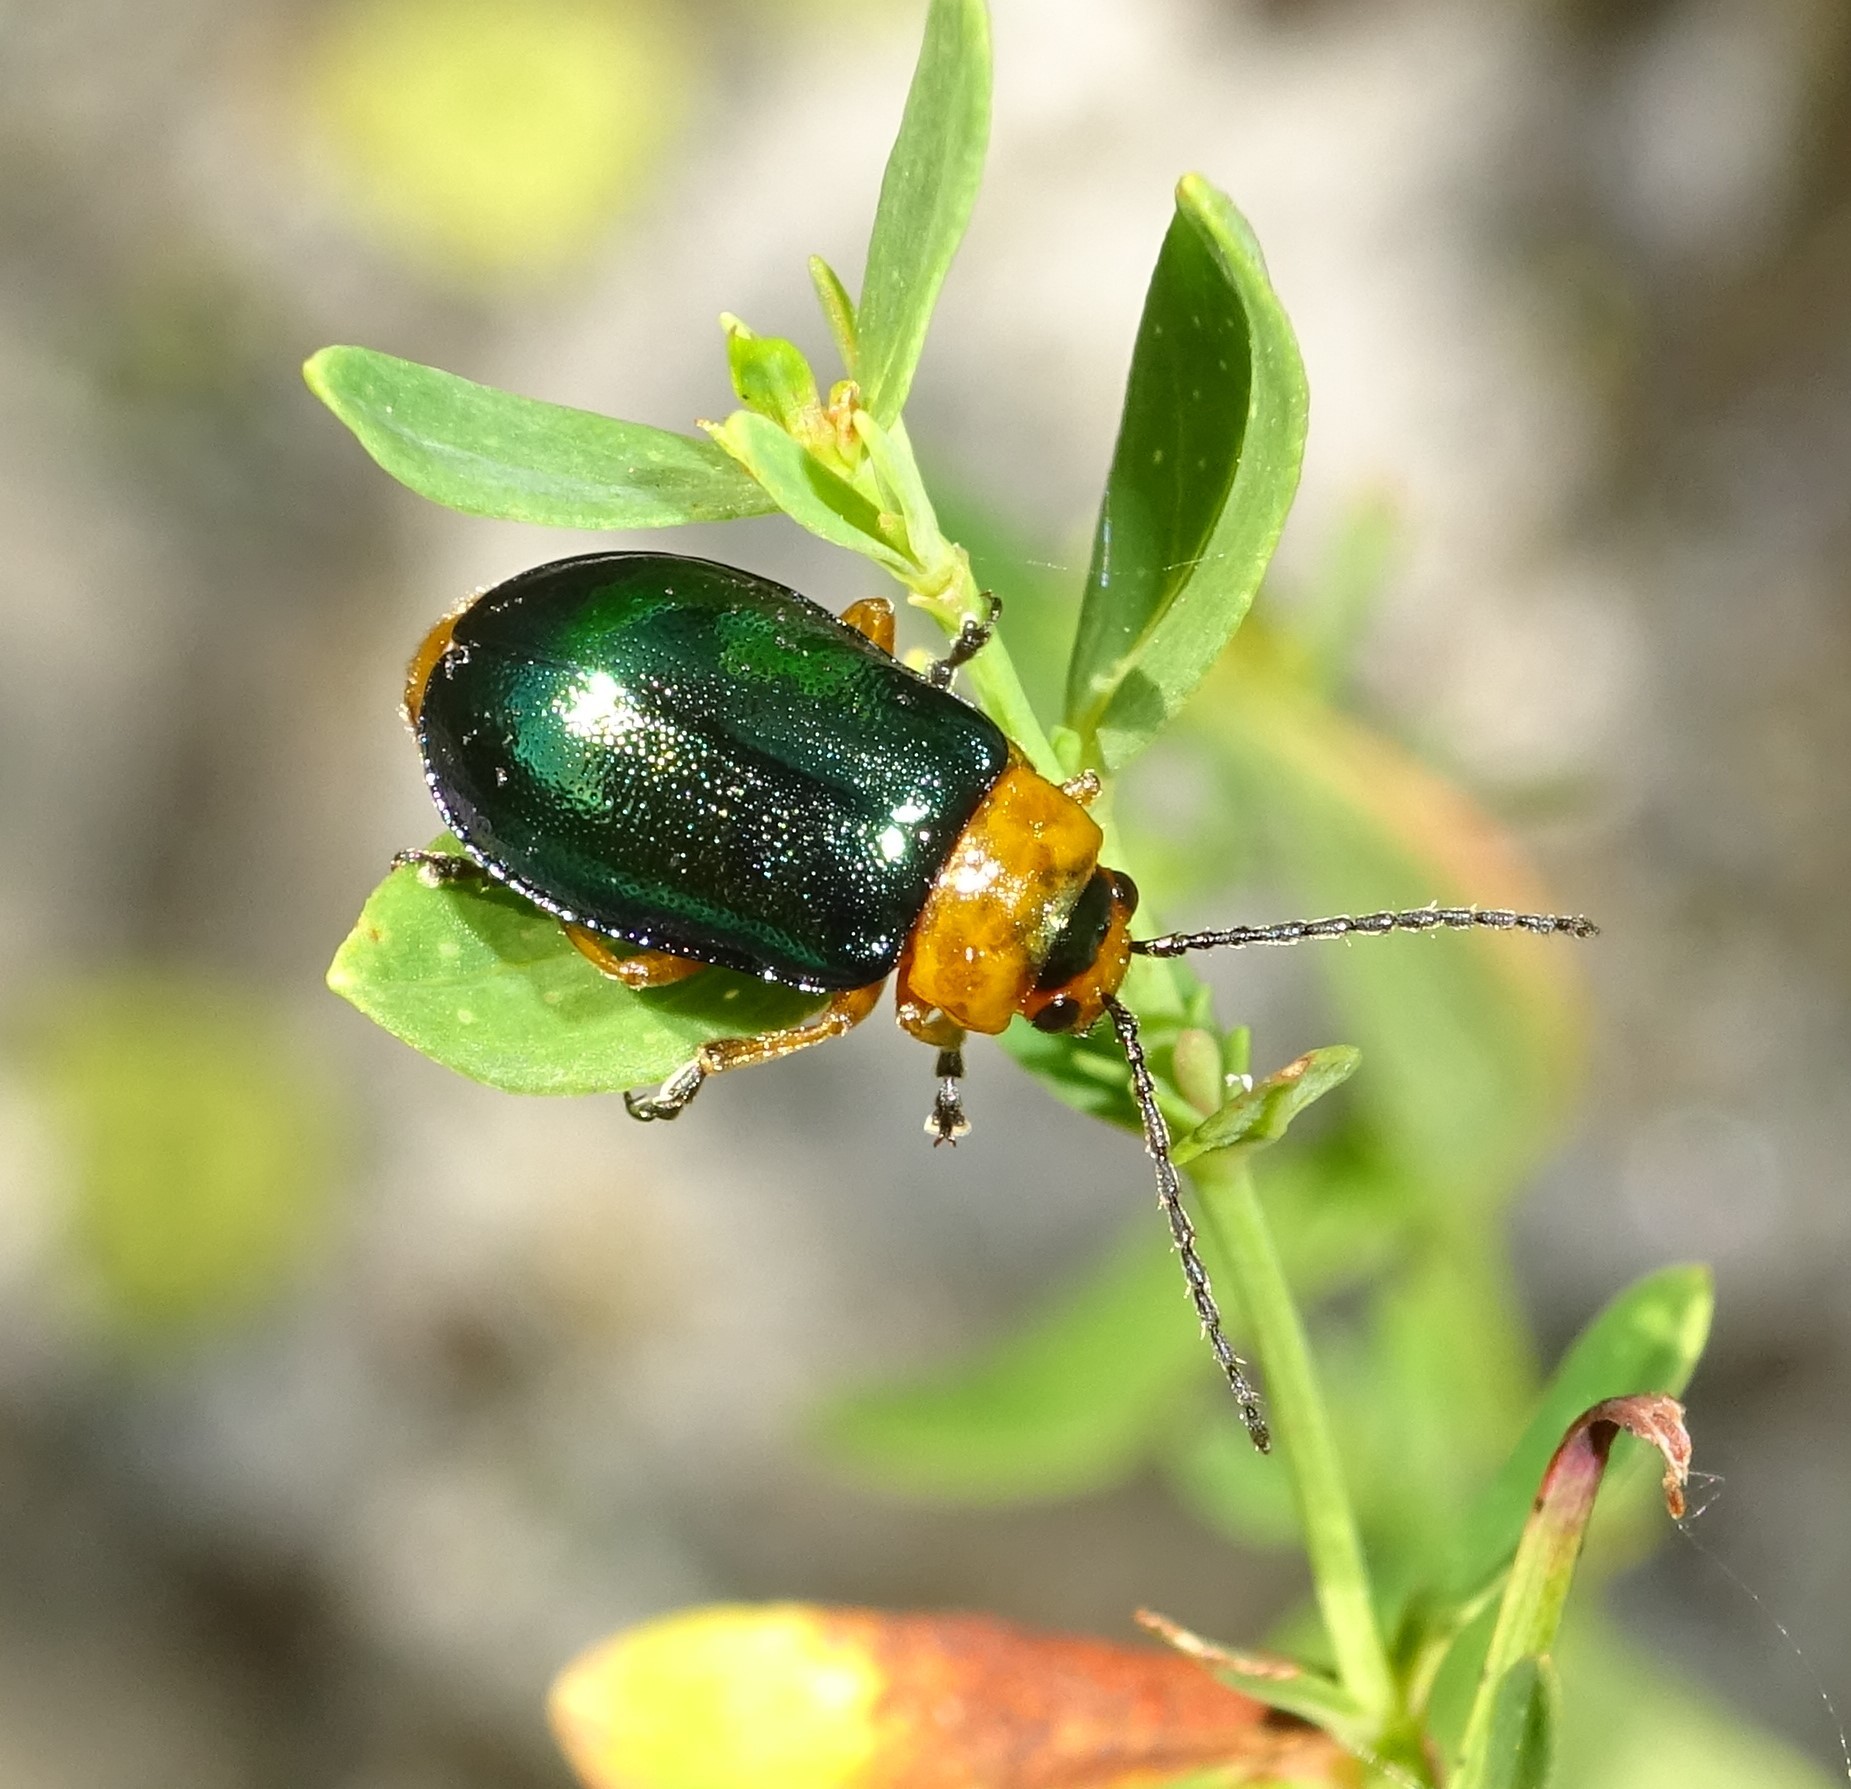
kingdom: Animalia
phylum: Arthropoda
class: Insecta
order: Coleoptera
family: Chrysomelidae
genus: Sermylassa
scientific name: Sermylassa halensis
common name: Leaf beetle
